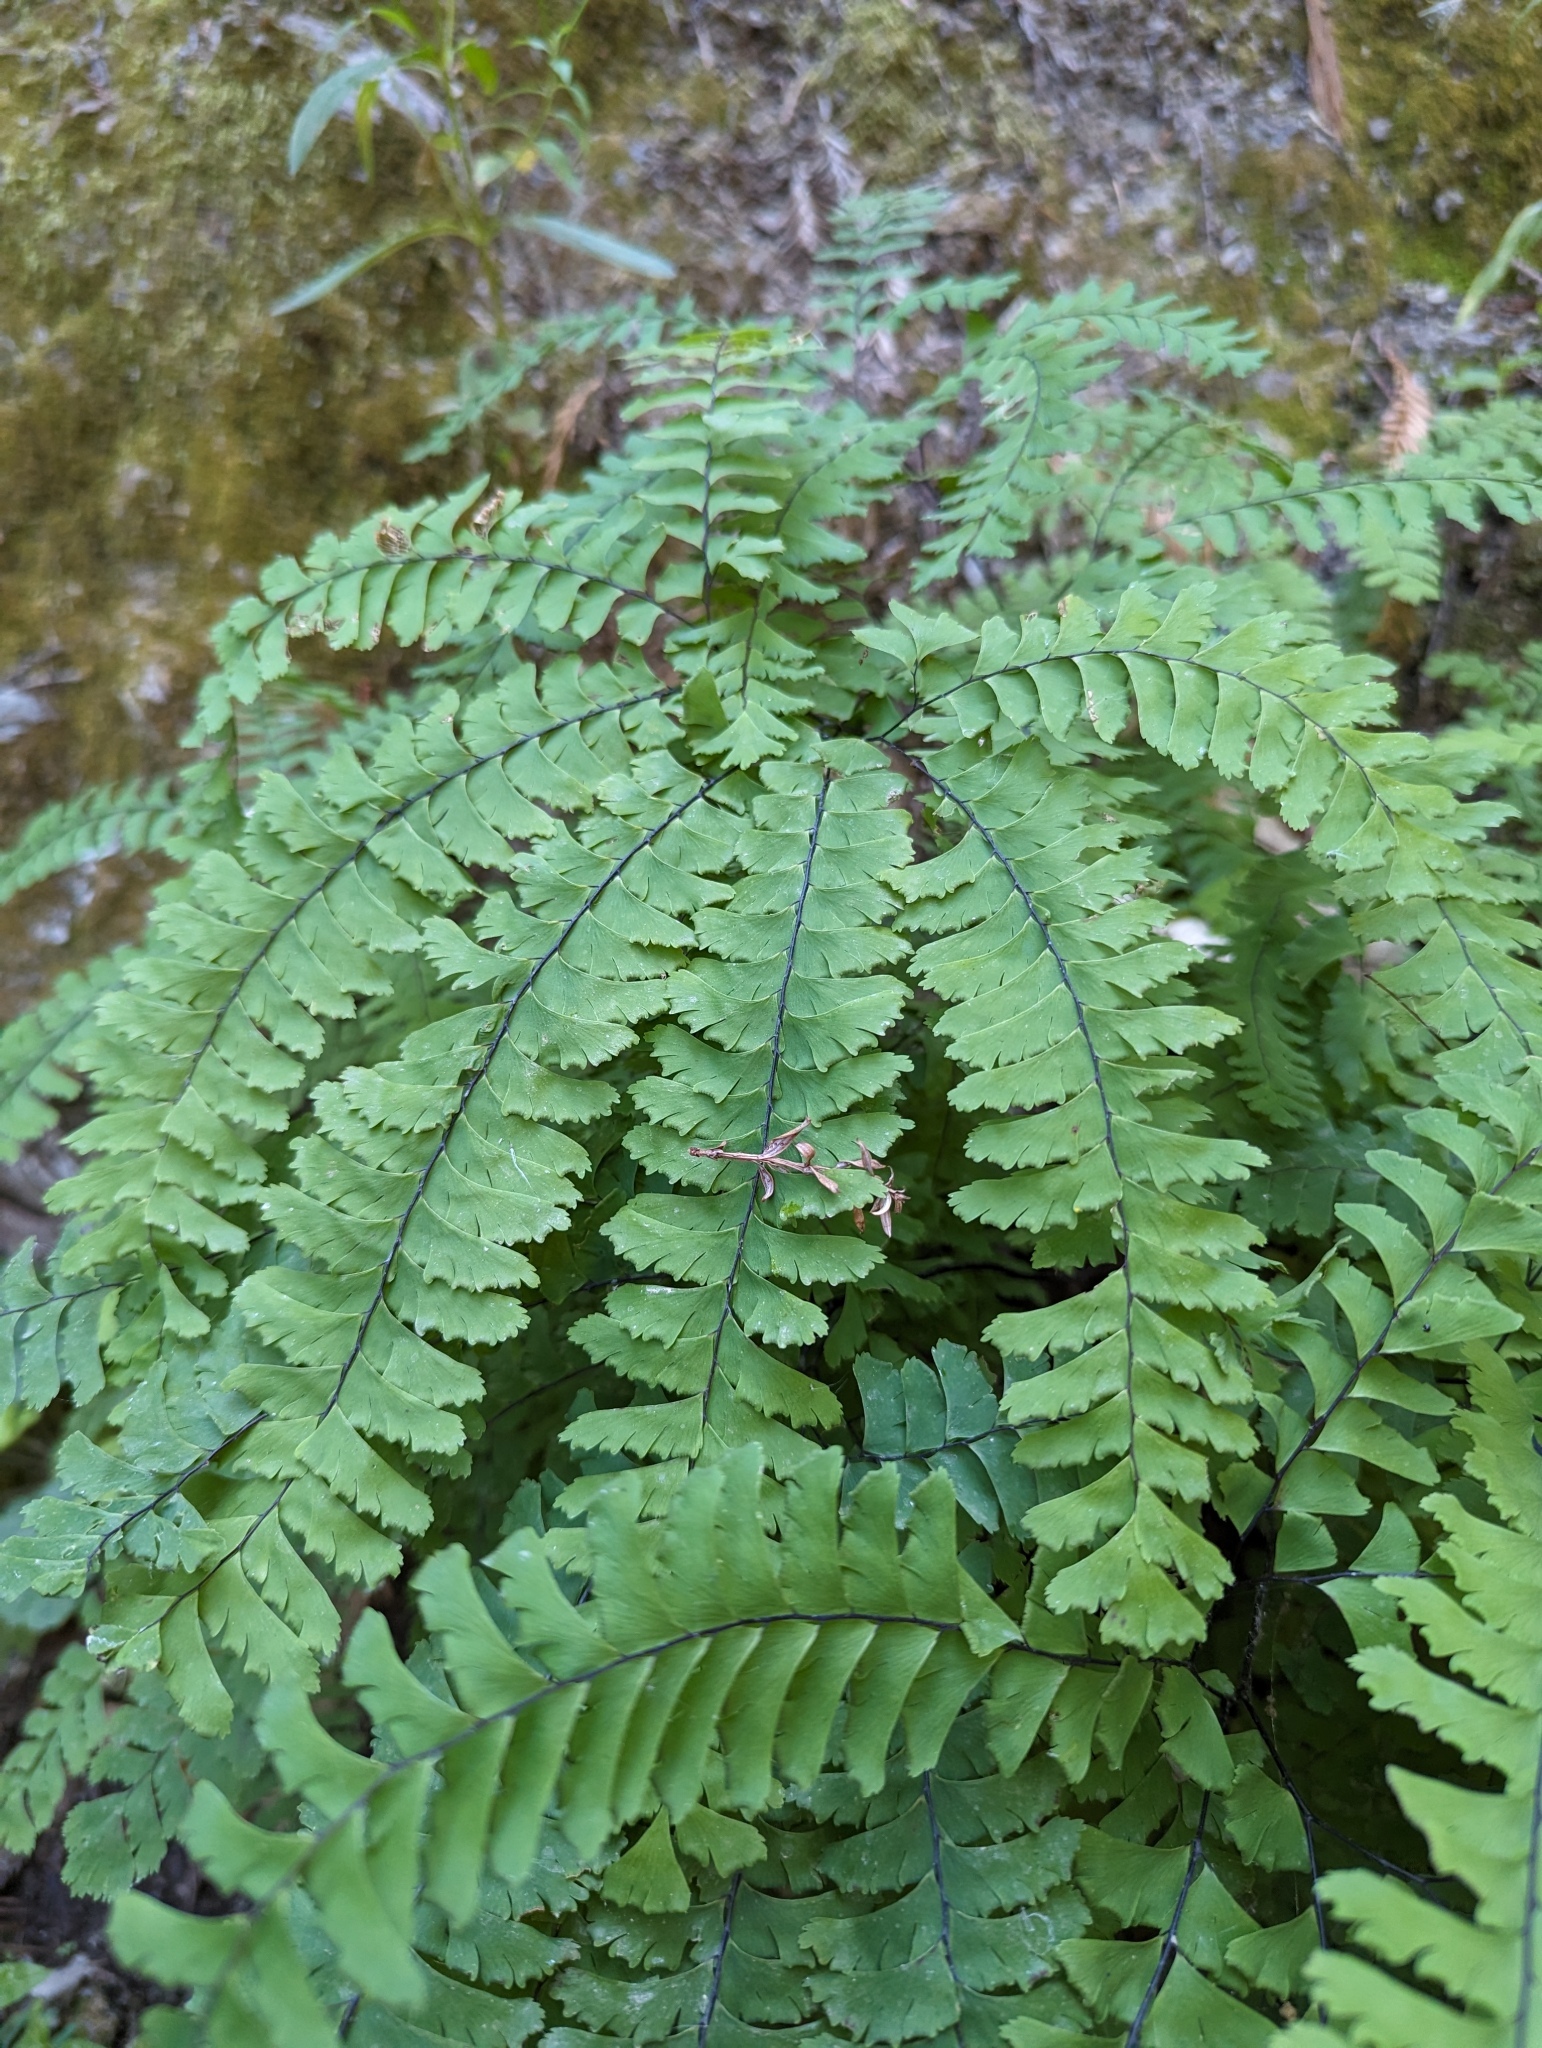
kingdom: Plantae
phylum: Tracheophyta
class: Polypodiopsida
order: Polypodiales
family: Pteridaceae
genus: Adiantum
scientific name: Adiantum aleuticum
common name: Aleutian maidenhair fern
